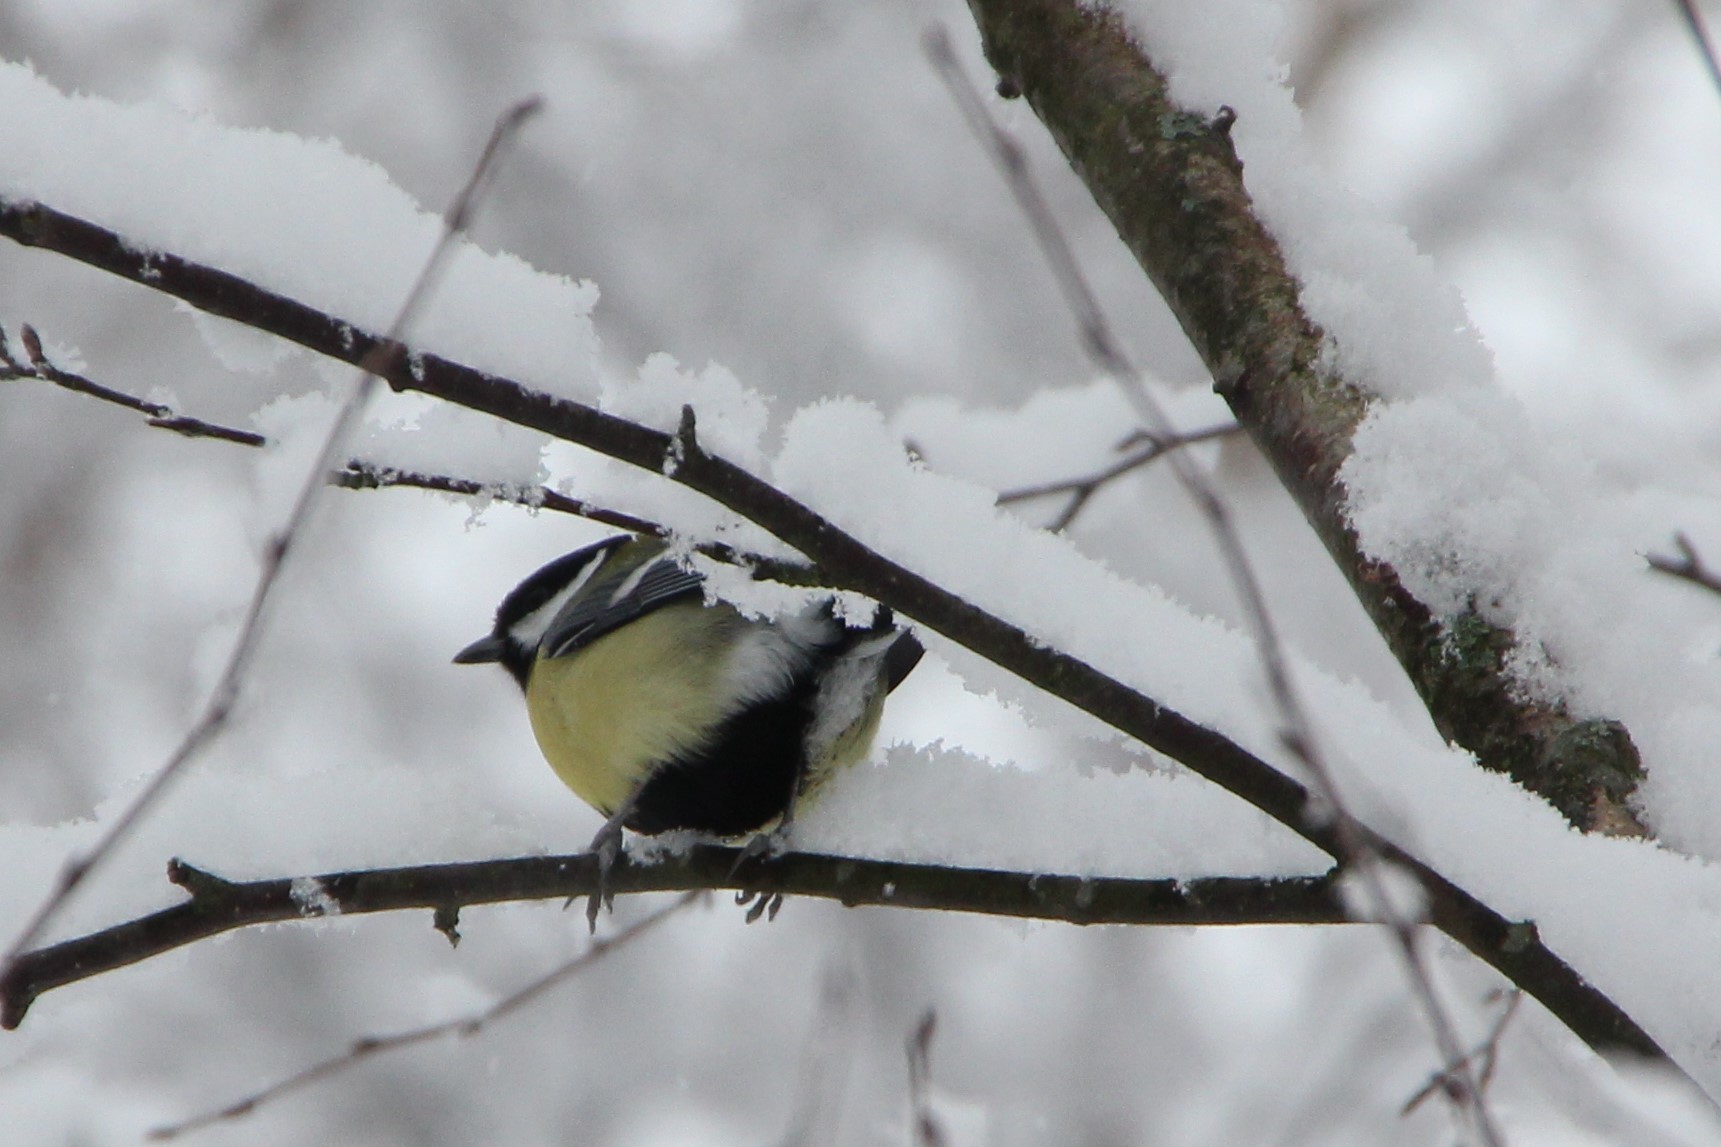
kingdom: Animalia
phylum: Chordata
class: Aves
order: Passeriformes
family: Paridae
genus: Parus
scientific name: Parus major
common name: Great tit
